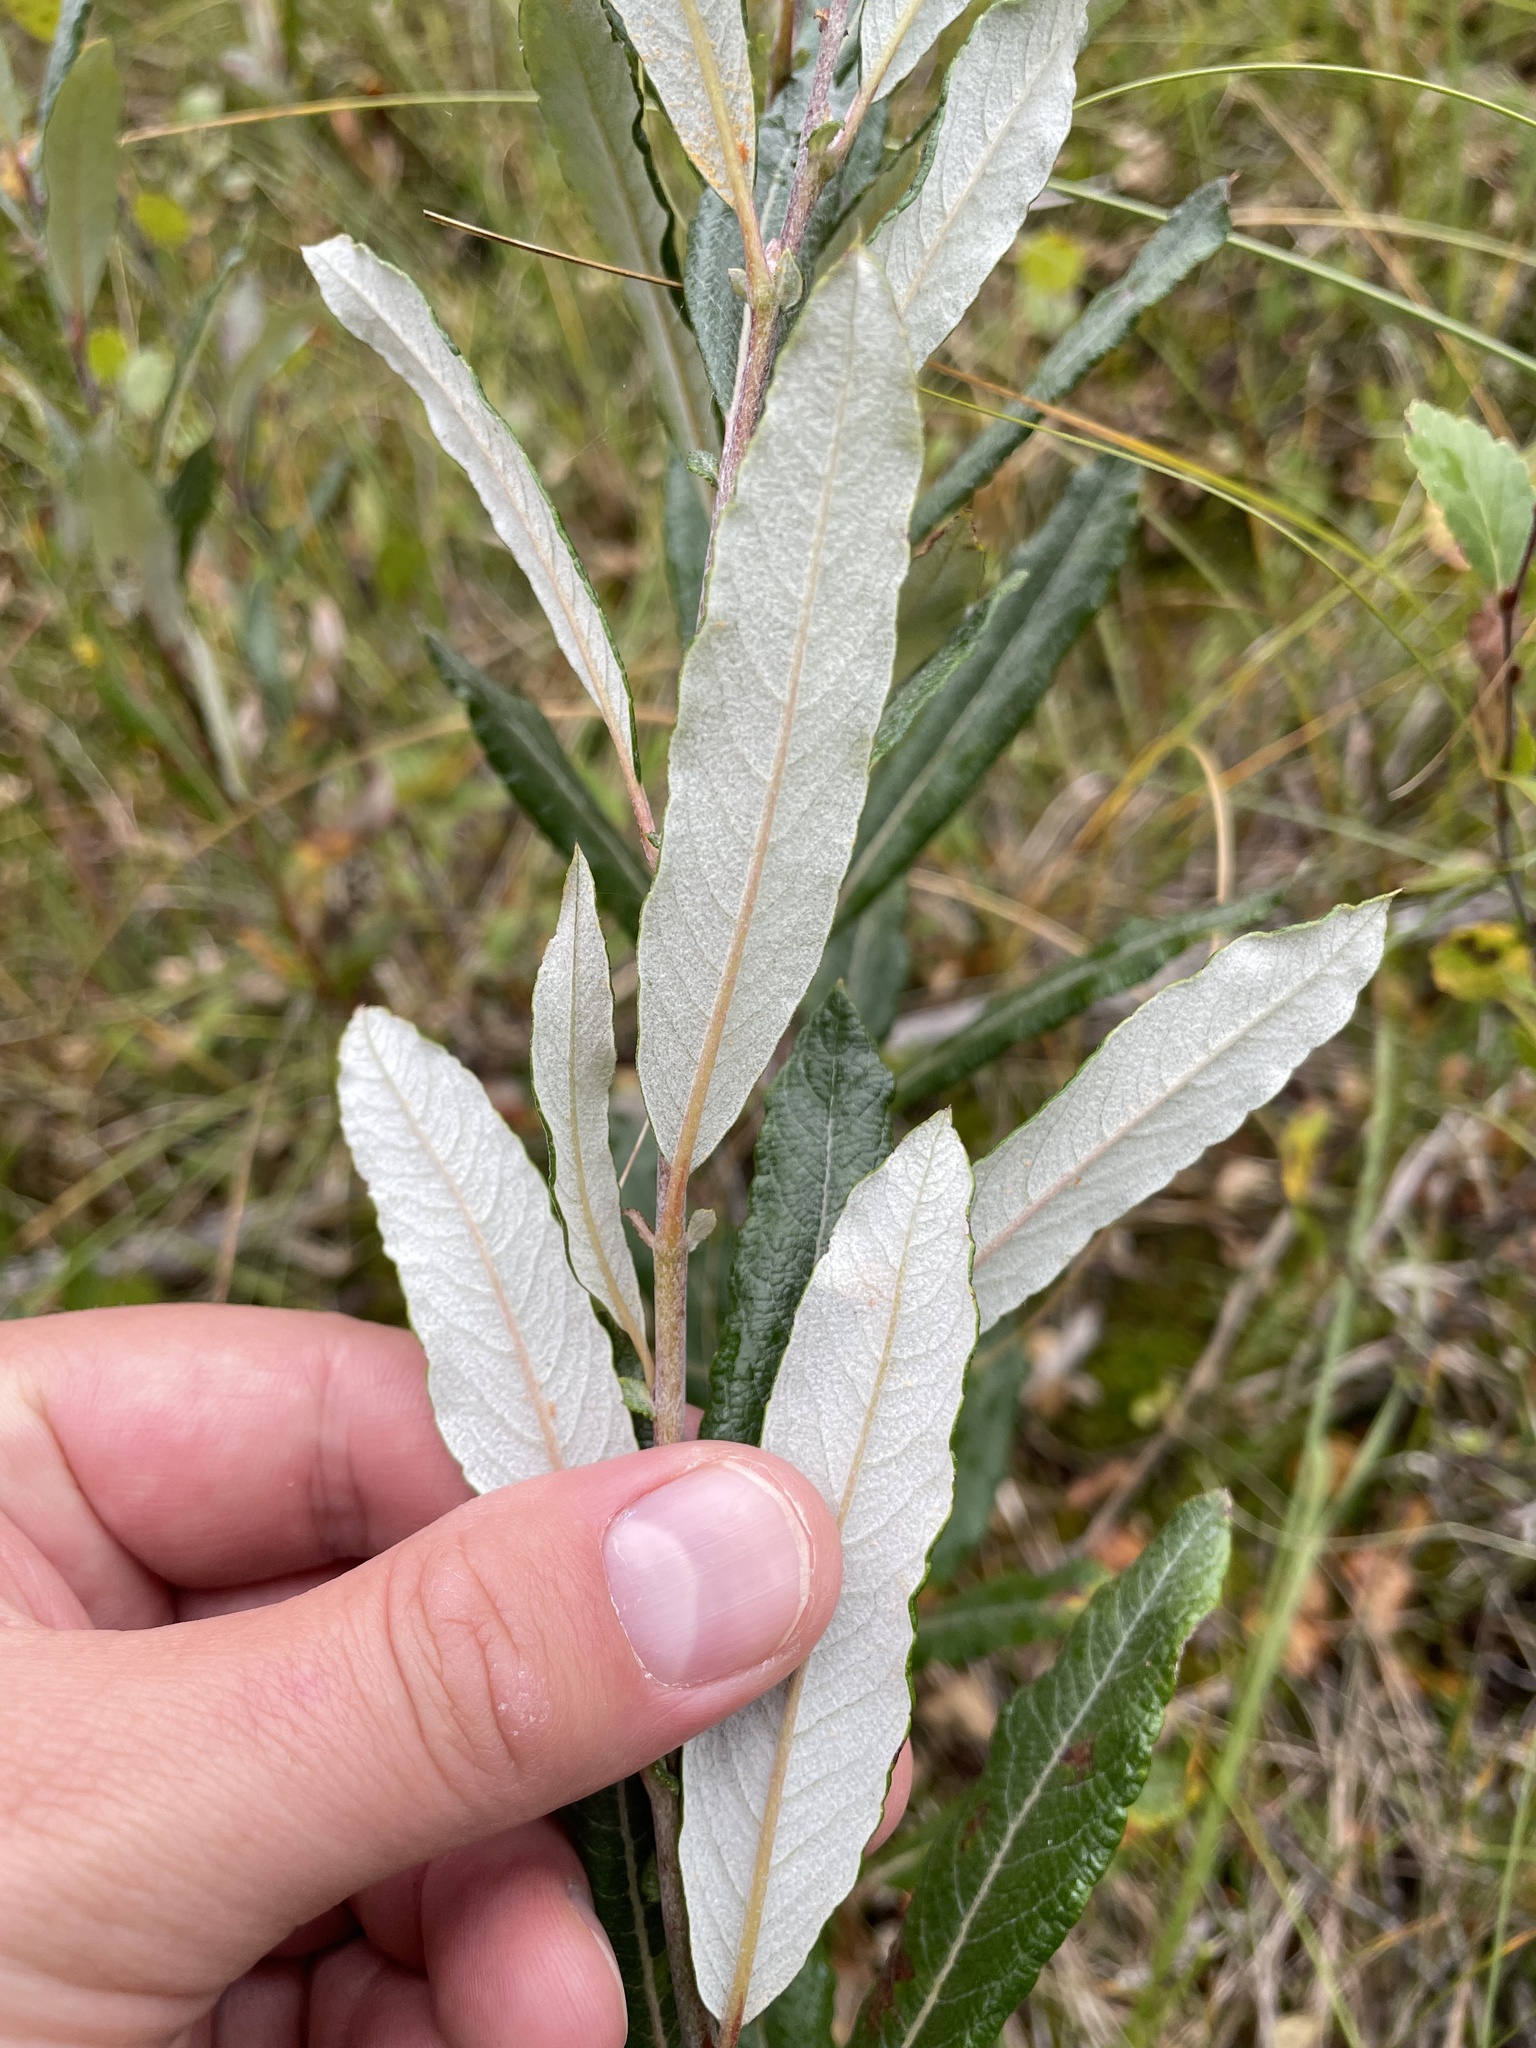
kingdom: Plantae
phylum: Tracheophyta
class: Magnoliopsida
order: Malpighiales
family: Salicaceae
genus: Salix
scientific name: Salix candida
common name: Hoary willow
